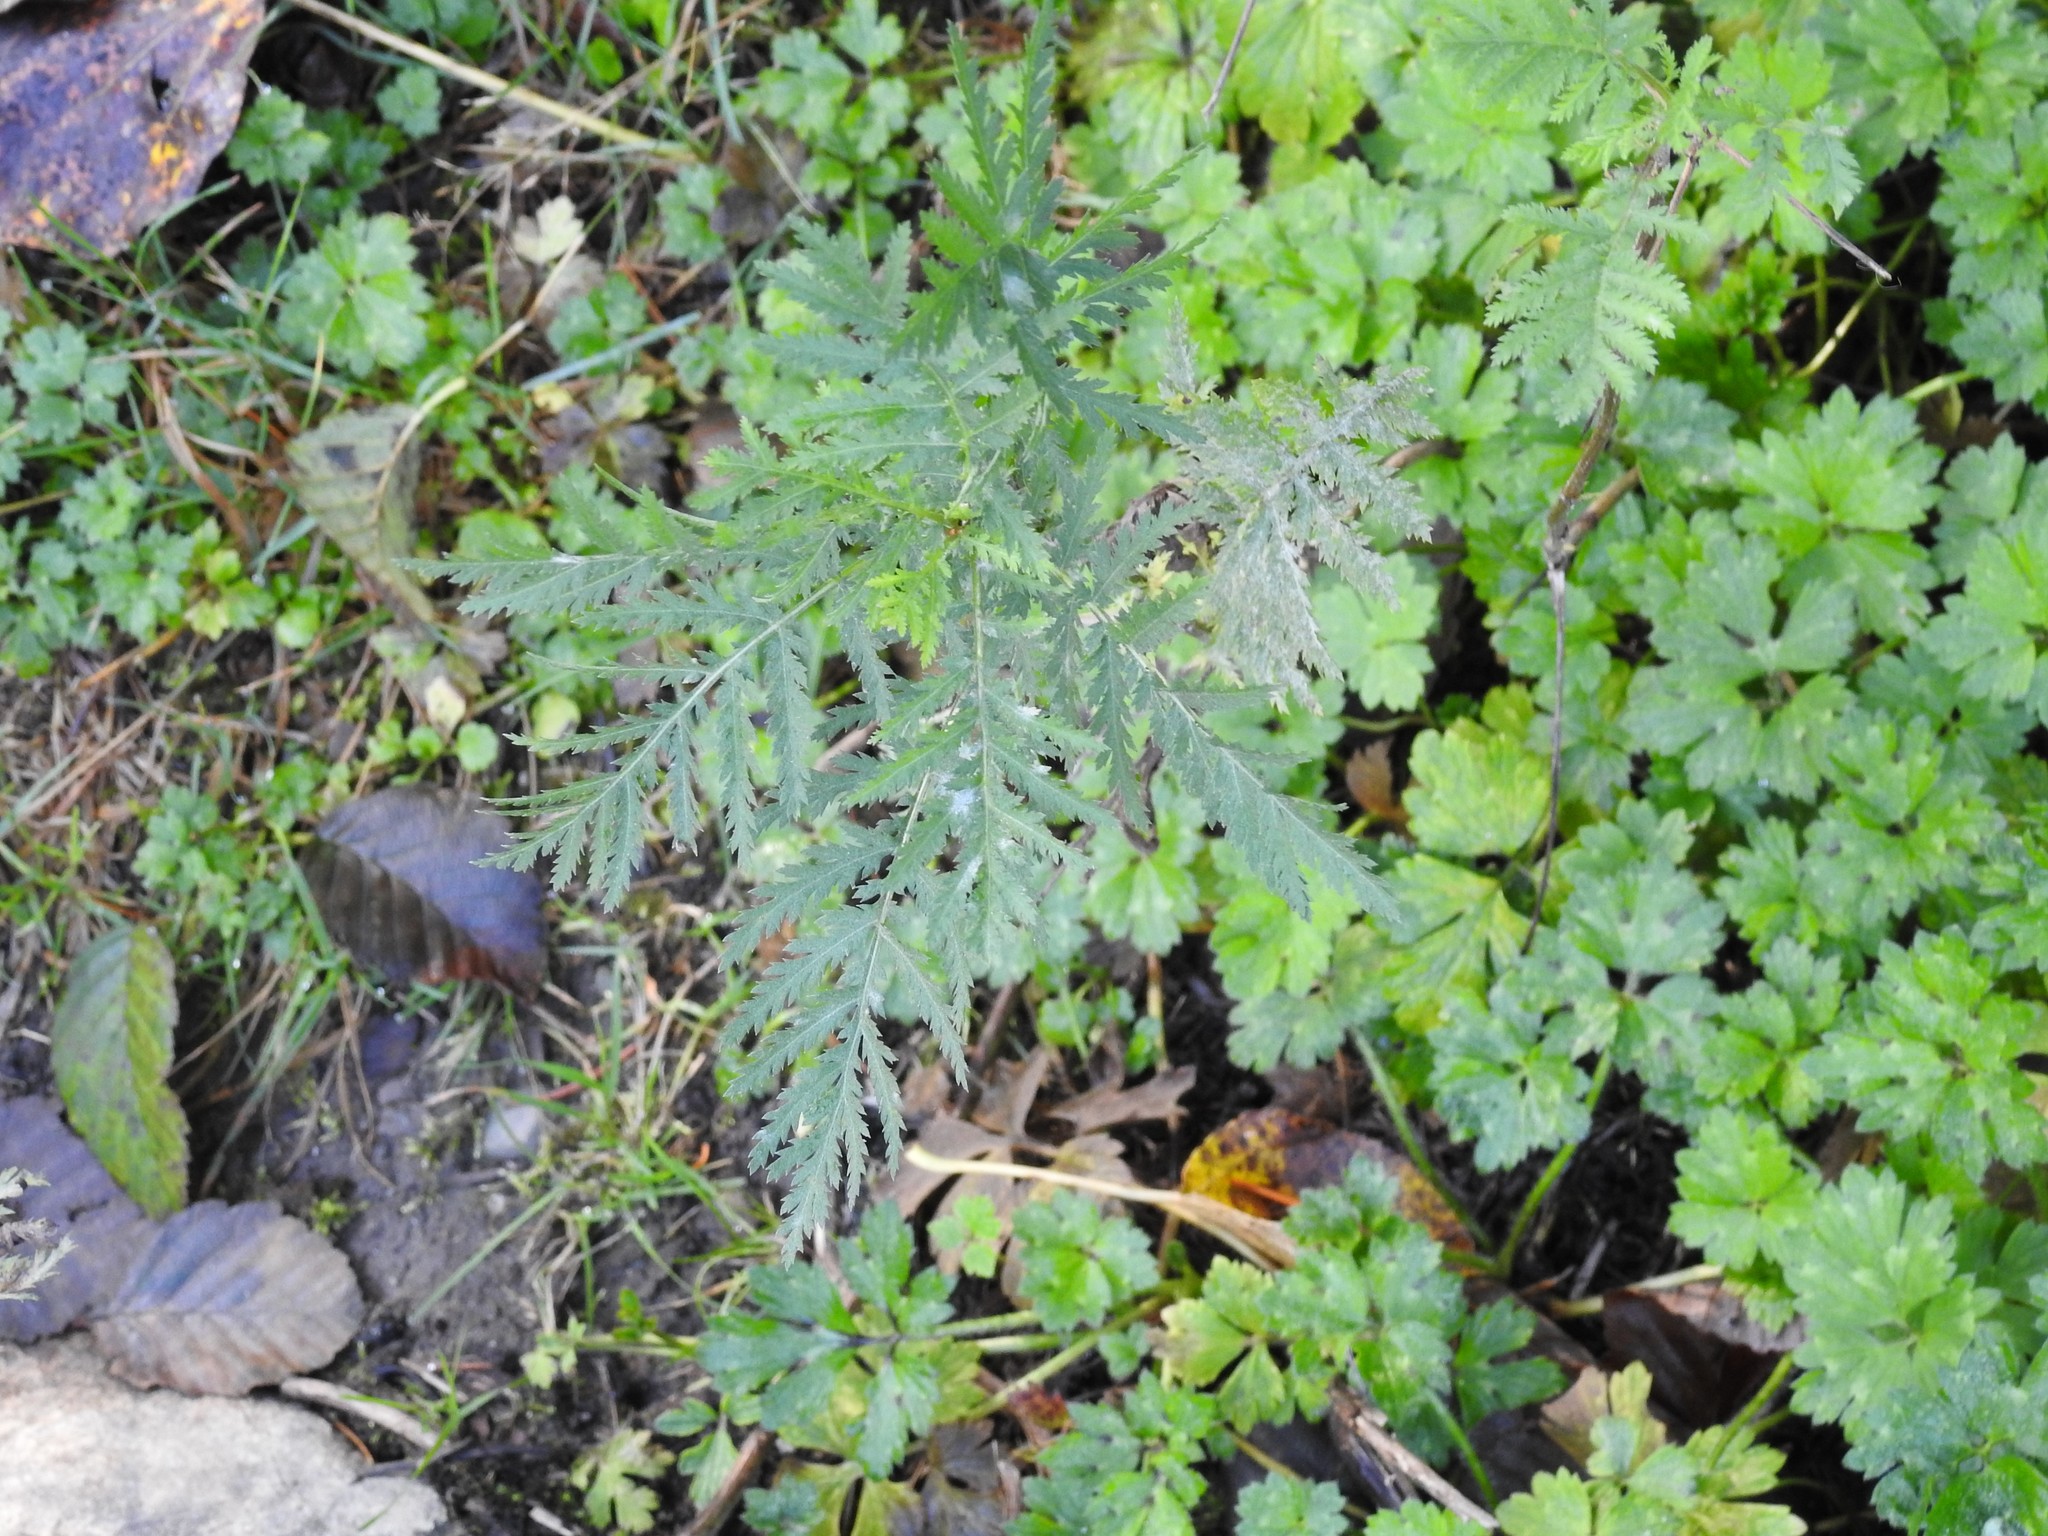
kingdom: Plantae
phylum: Tracheophyta
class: Magnoliopsida
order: Asterales
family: Asteraceae
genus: Tanacetum
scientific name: Tanacetum vulgare
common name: Common tansy
